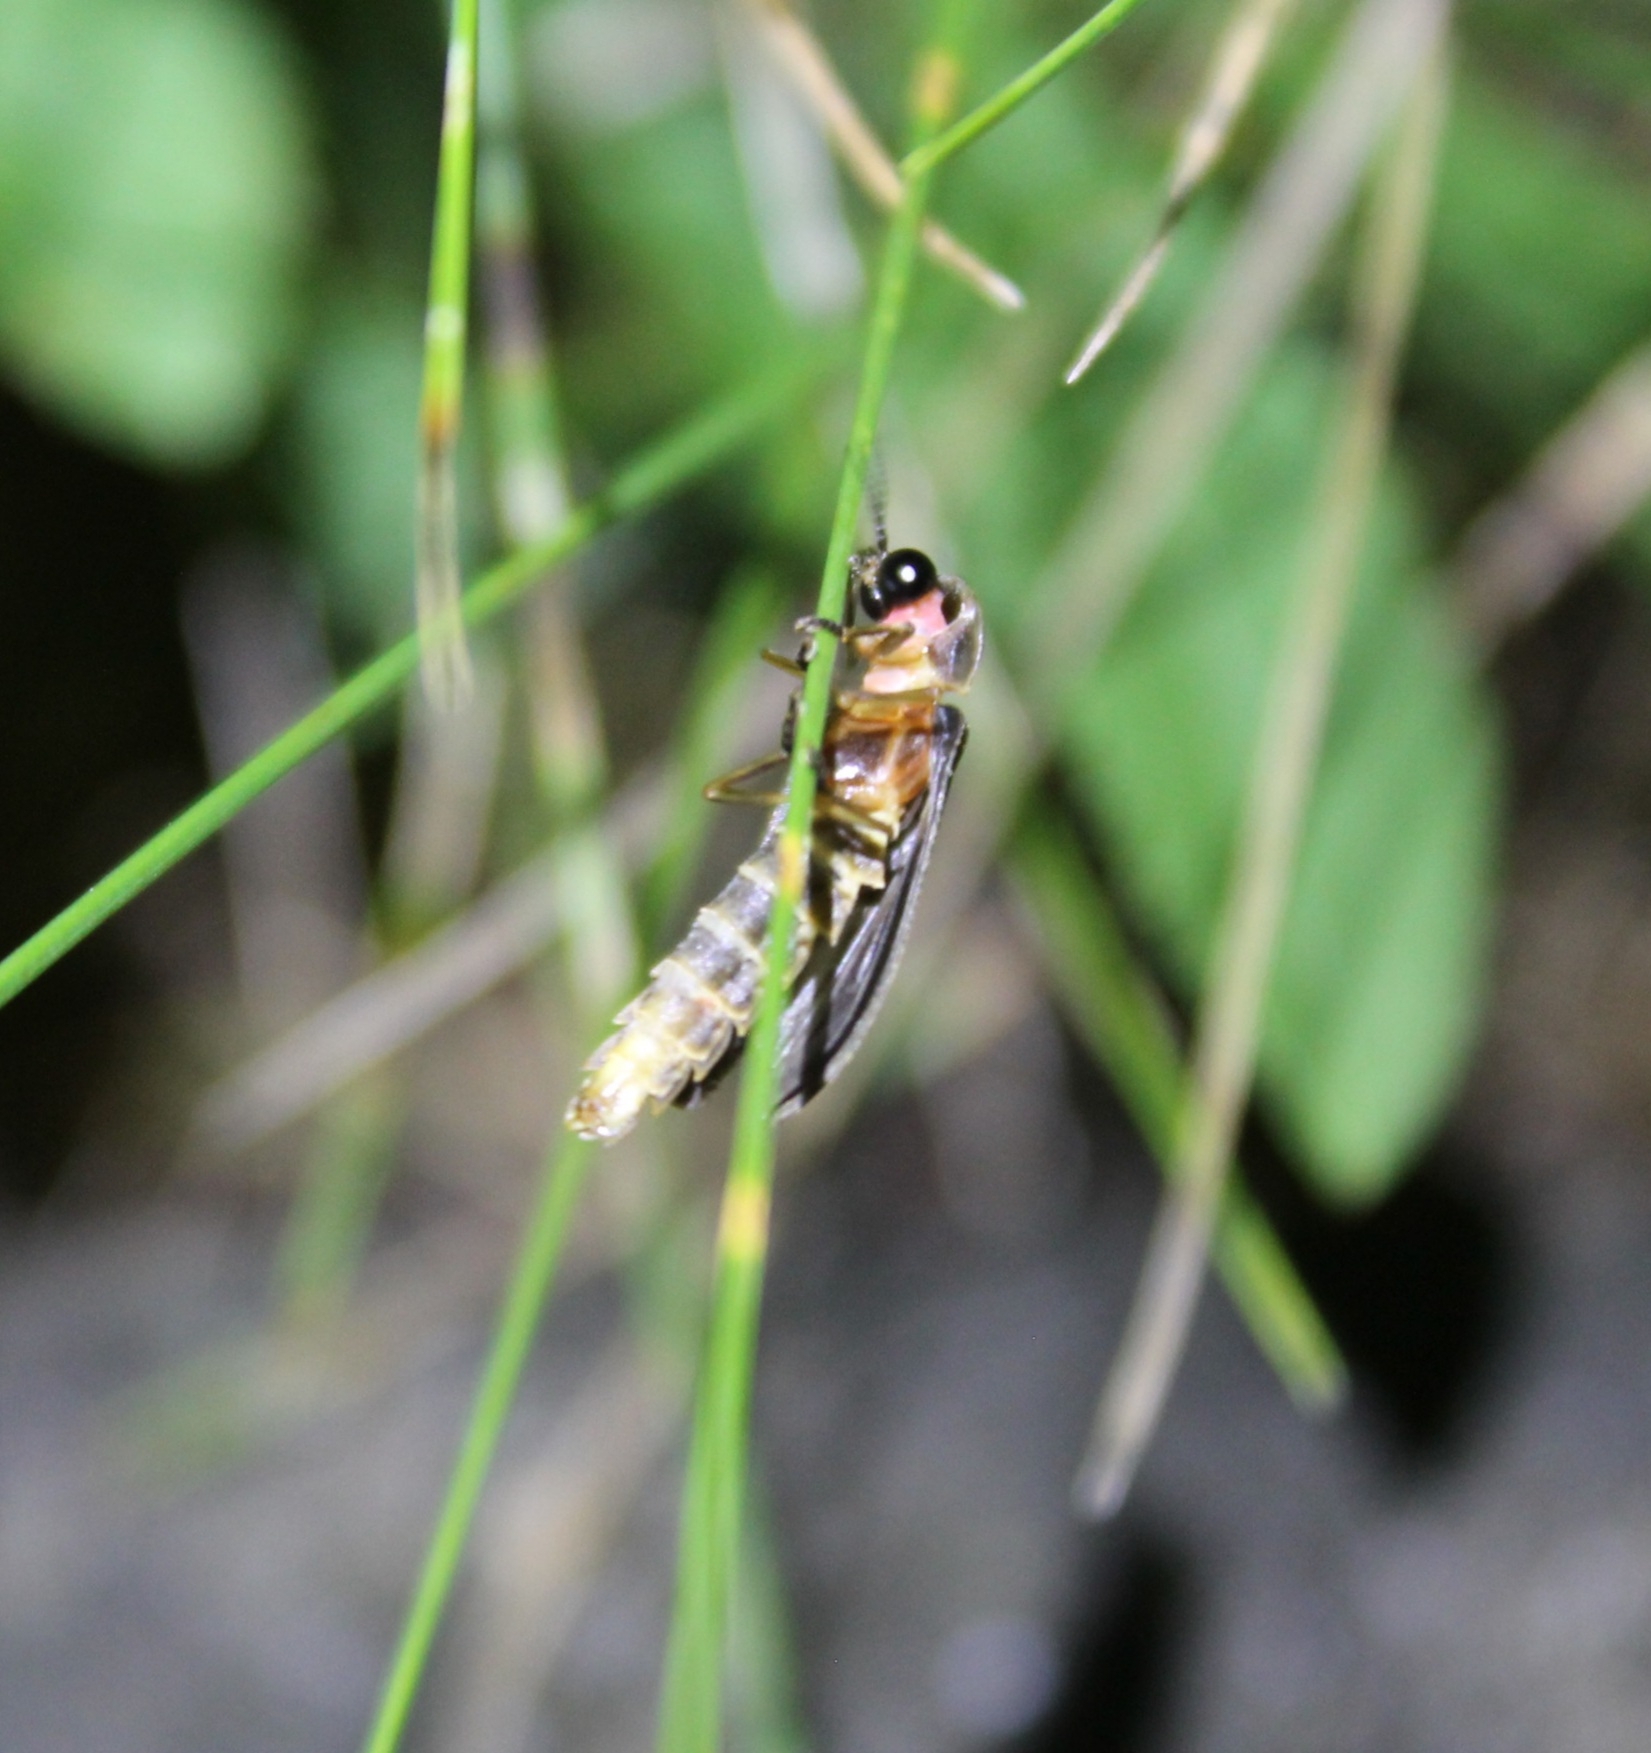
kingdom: Animalia
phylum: Arthropoda
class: Insecta
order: Coleoptera
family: Lampyridae
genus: Lampyris
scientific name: Lampyris noctiluca
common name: Glow-worm
